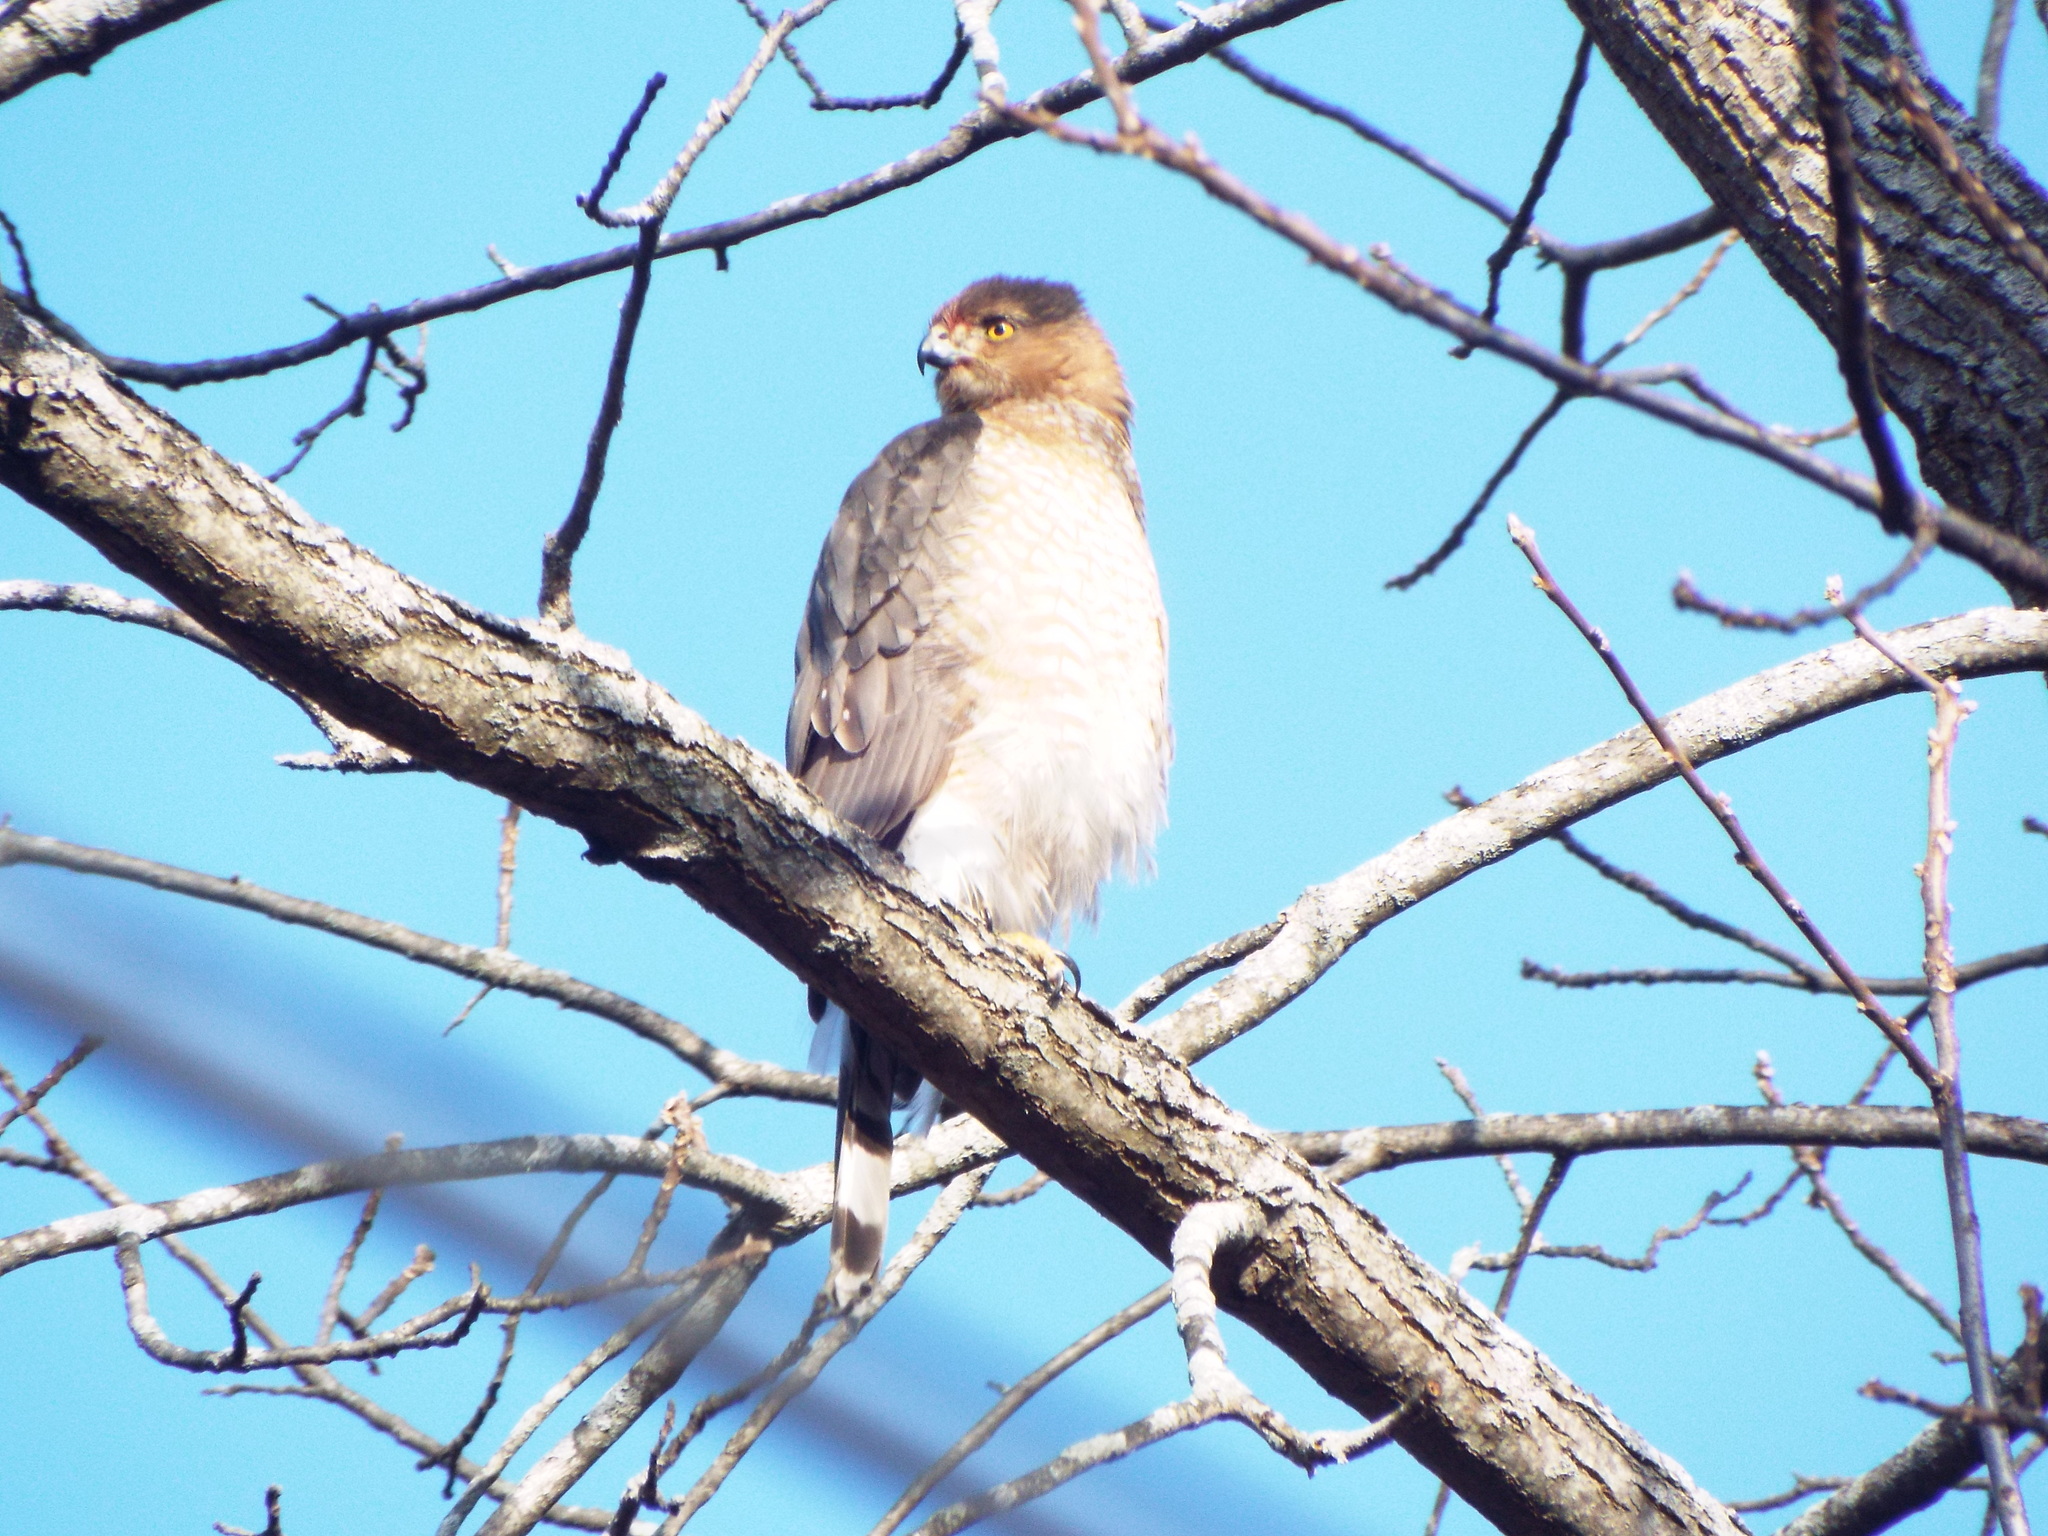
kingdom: Animalia
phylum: Chordata
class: Aves
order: Accipitriformes
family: Accipitridae
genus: Accipiter
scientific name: Accipiter cooperii
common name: Cooper's hawk
